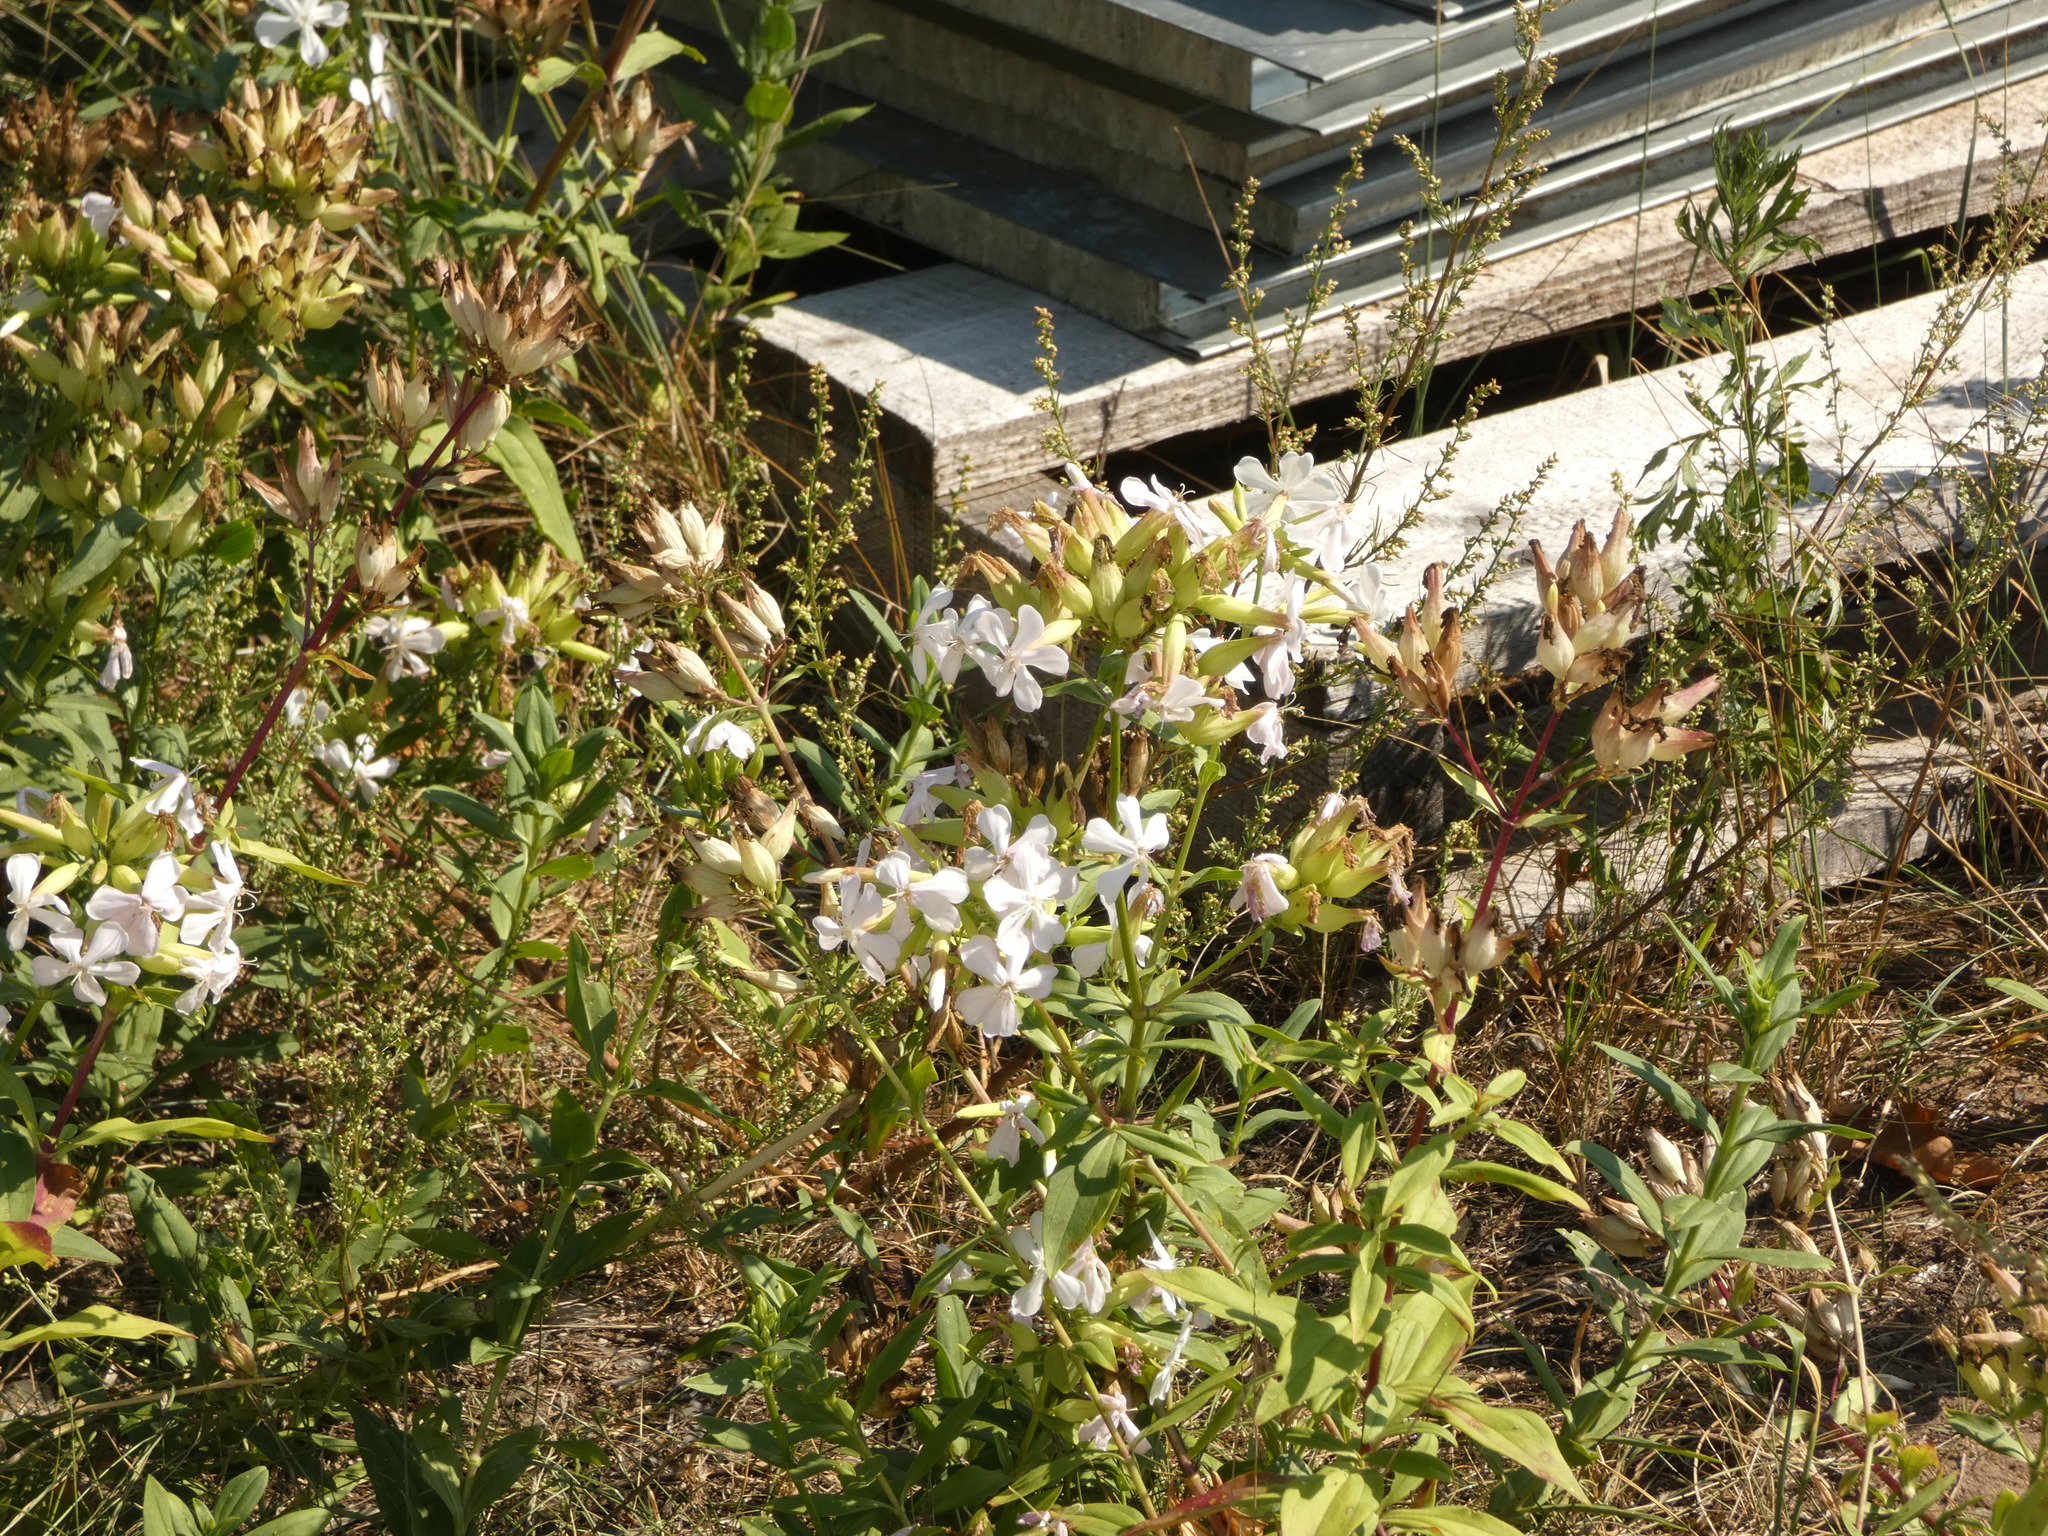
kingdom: Plantae
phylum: Tracheophyta
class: Magnoliopsida
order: Caryophyllales
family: Caryophyllaceae
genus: Saponaria
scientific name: Saponaria officinalis
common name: Soapwort
